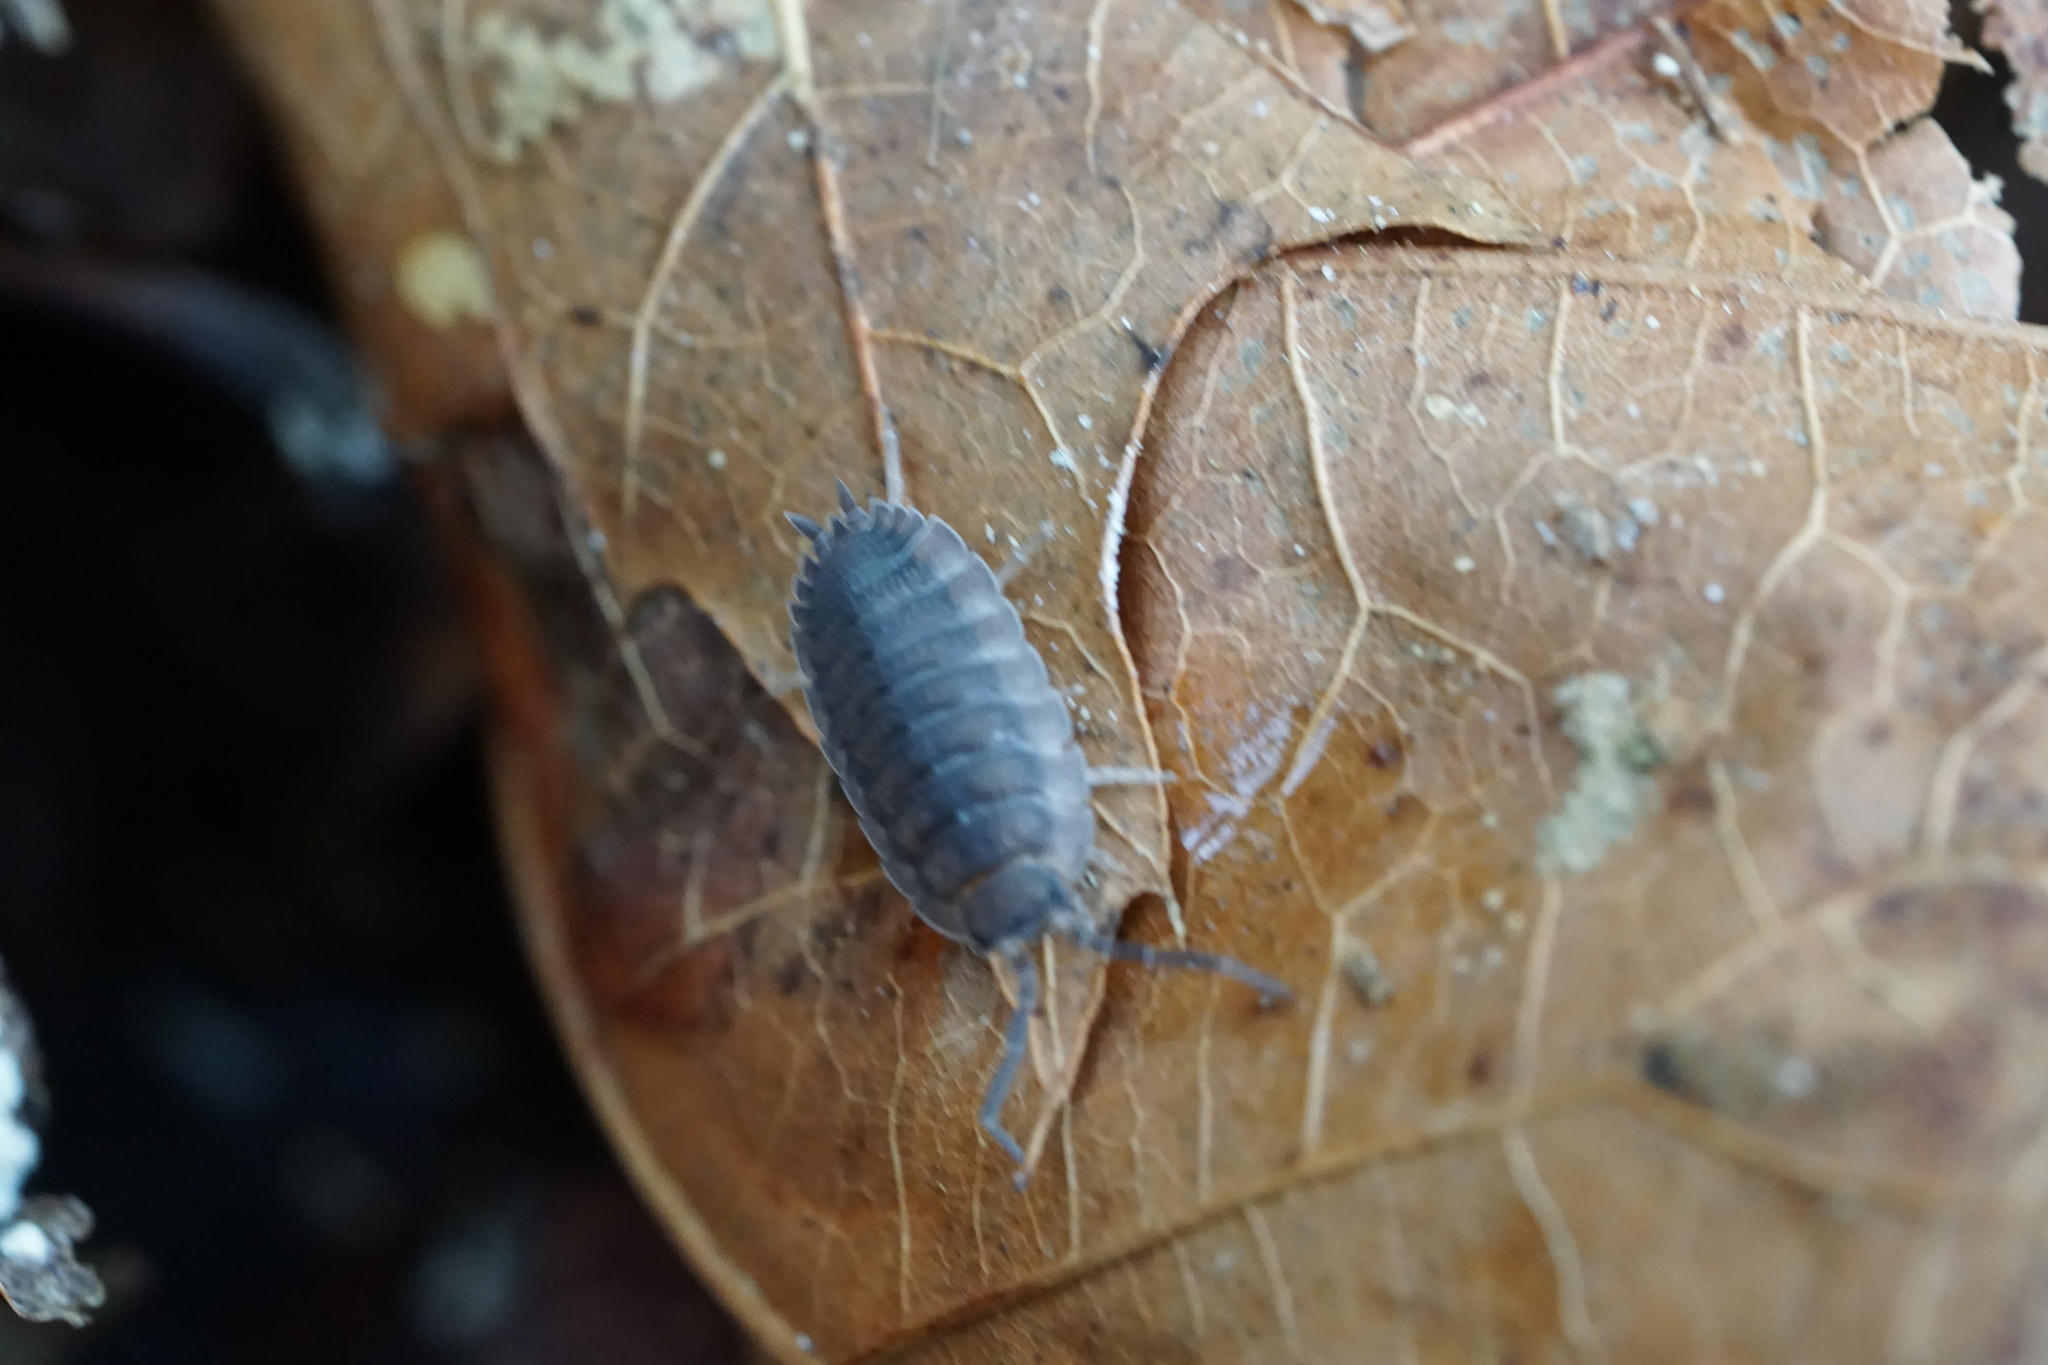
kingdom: Animalia
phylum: Arthropoda
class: Malacostraca
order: Isopoda
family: Porcellionidae
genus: Porcellio
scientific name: Porcellio scaber
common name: Common rough woodlouse
